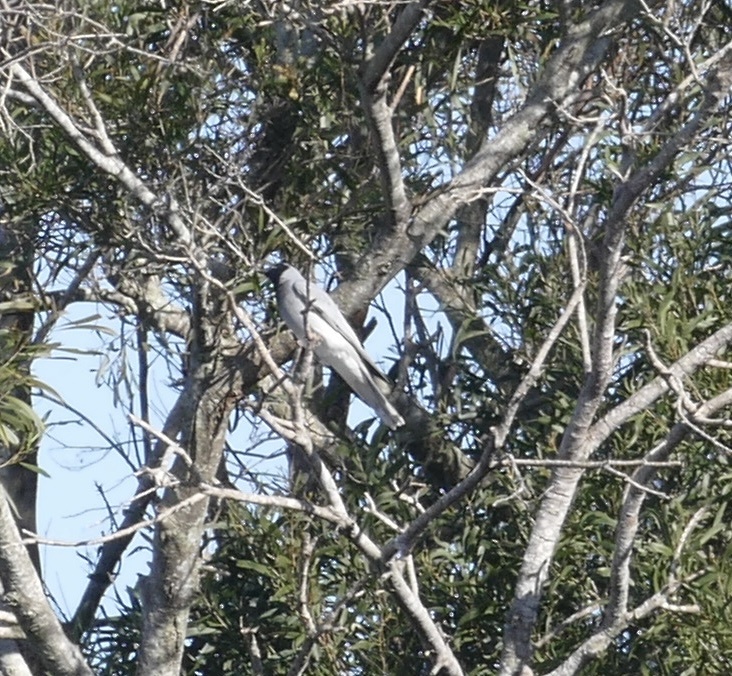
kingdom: Animalia
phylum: Chordata
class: Aves
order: Passeriformes
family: Campephagidae
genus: Coracina
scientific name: Coracina novaehollandiae
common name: Black-faced cuckooshrike
